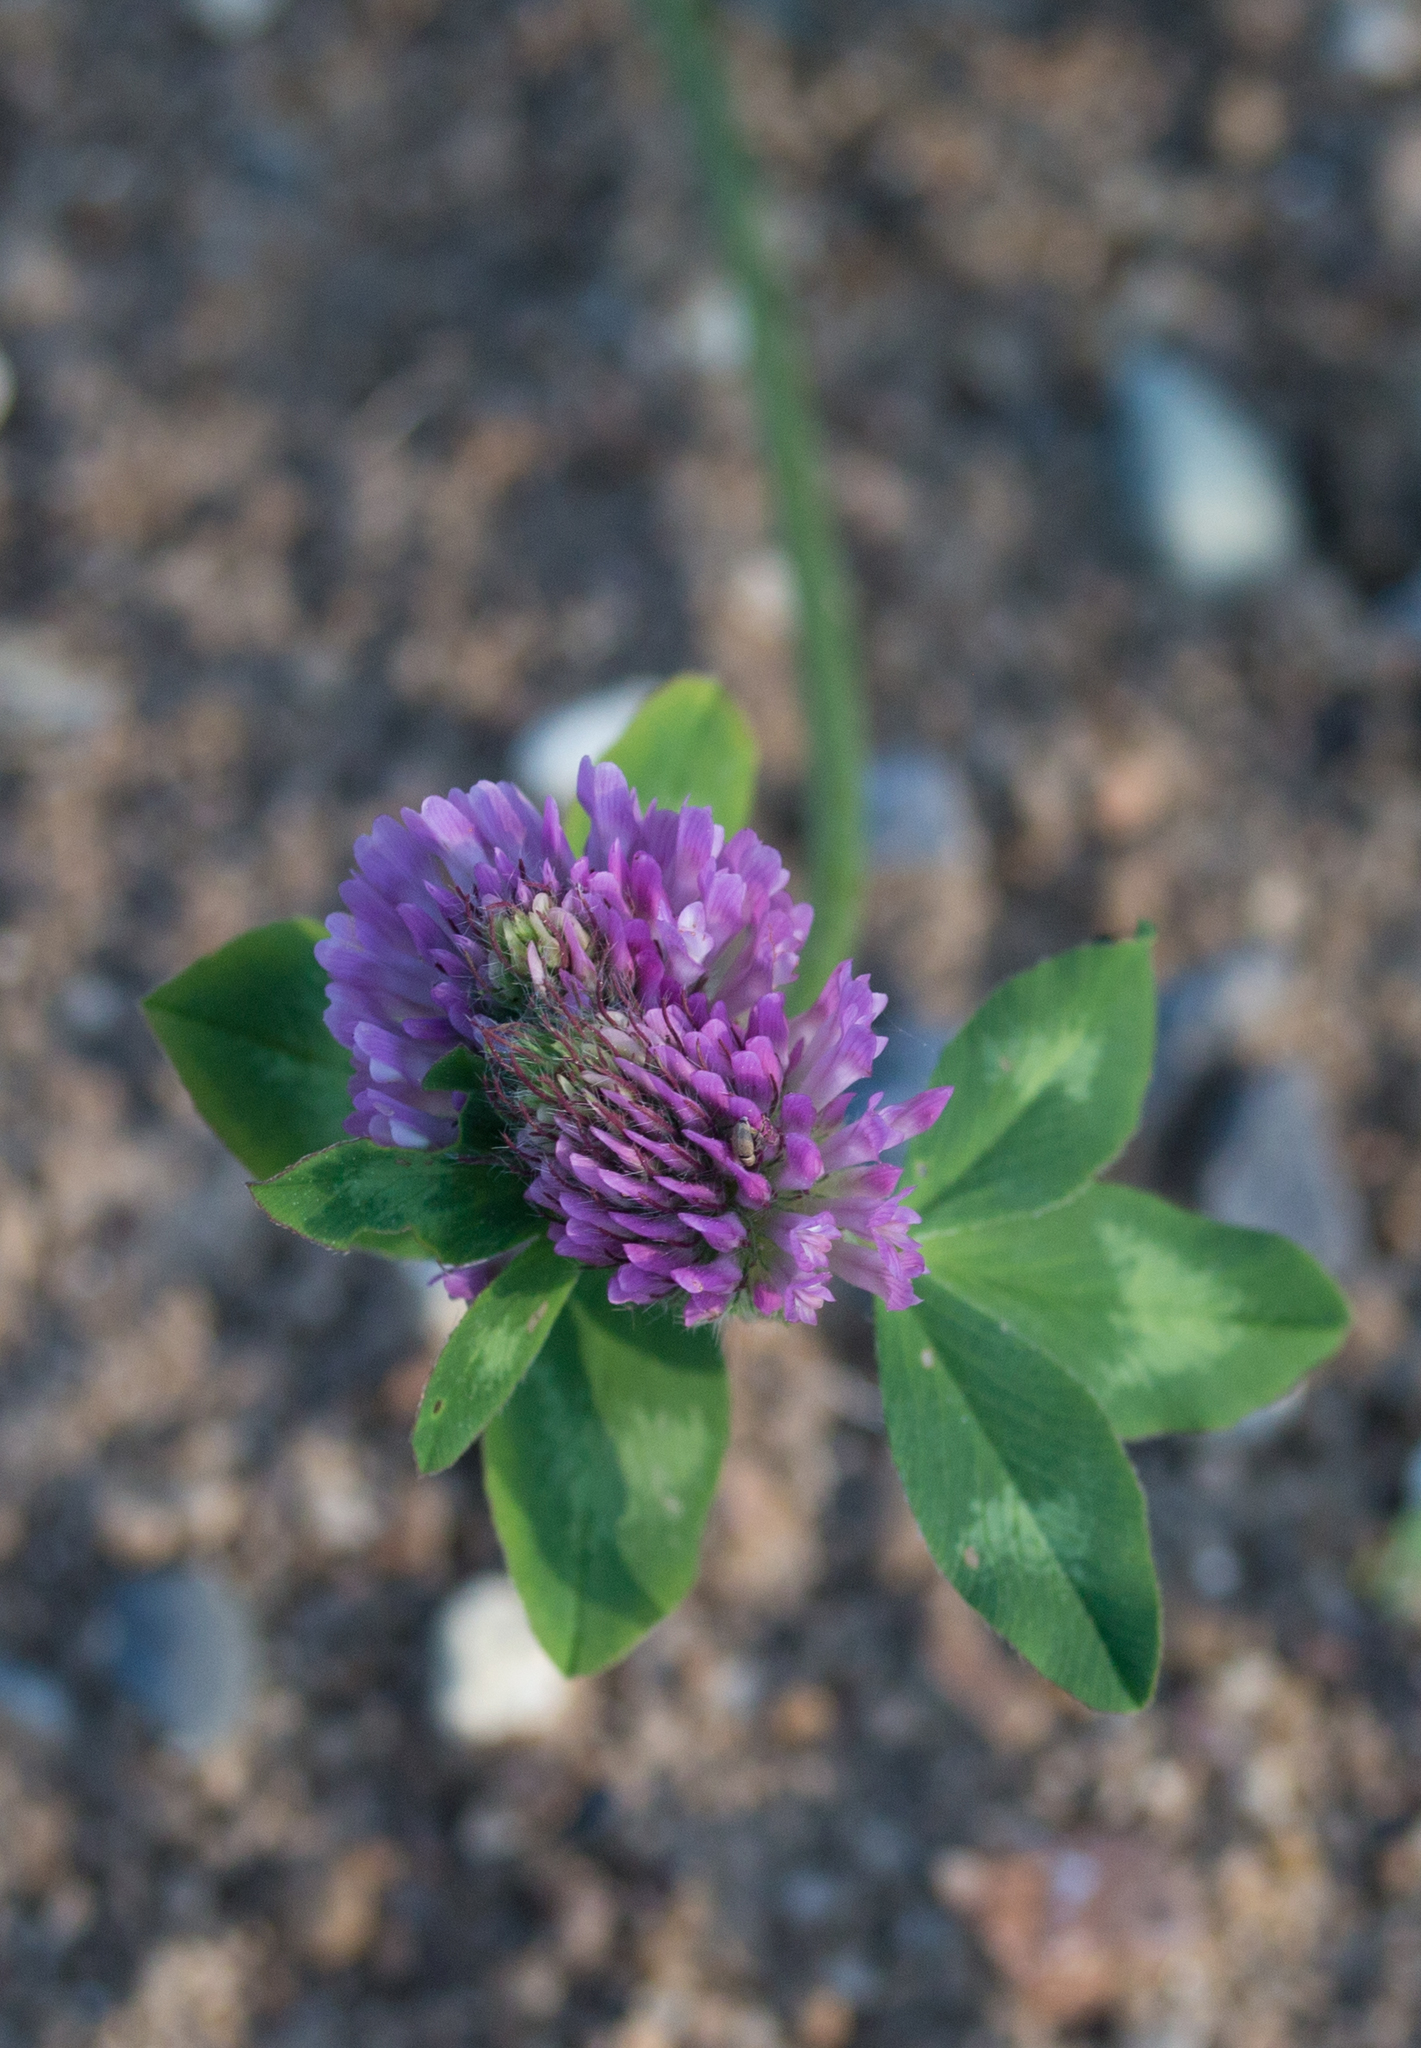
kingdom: Plantae
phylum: Tracheophyta
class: Magnoliopsida
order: Fabales
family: Fabaceae
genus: Trifolium
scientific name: Trifolium pratense
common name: Red clover
